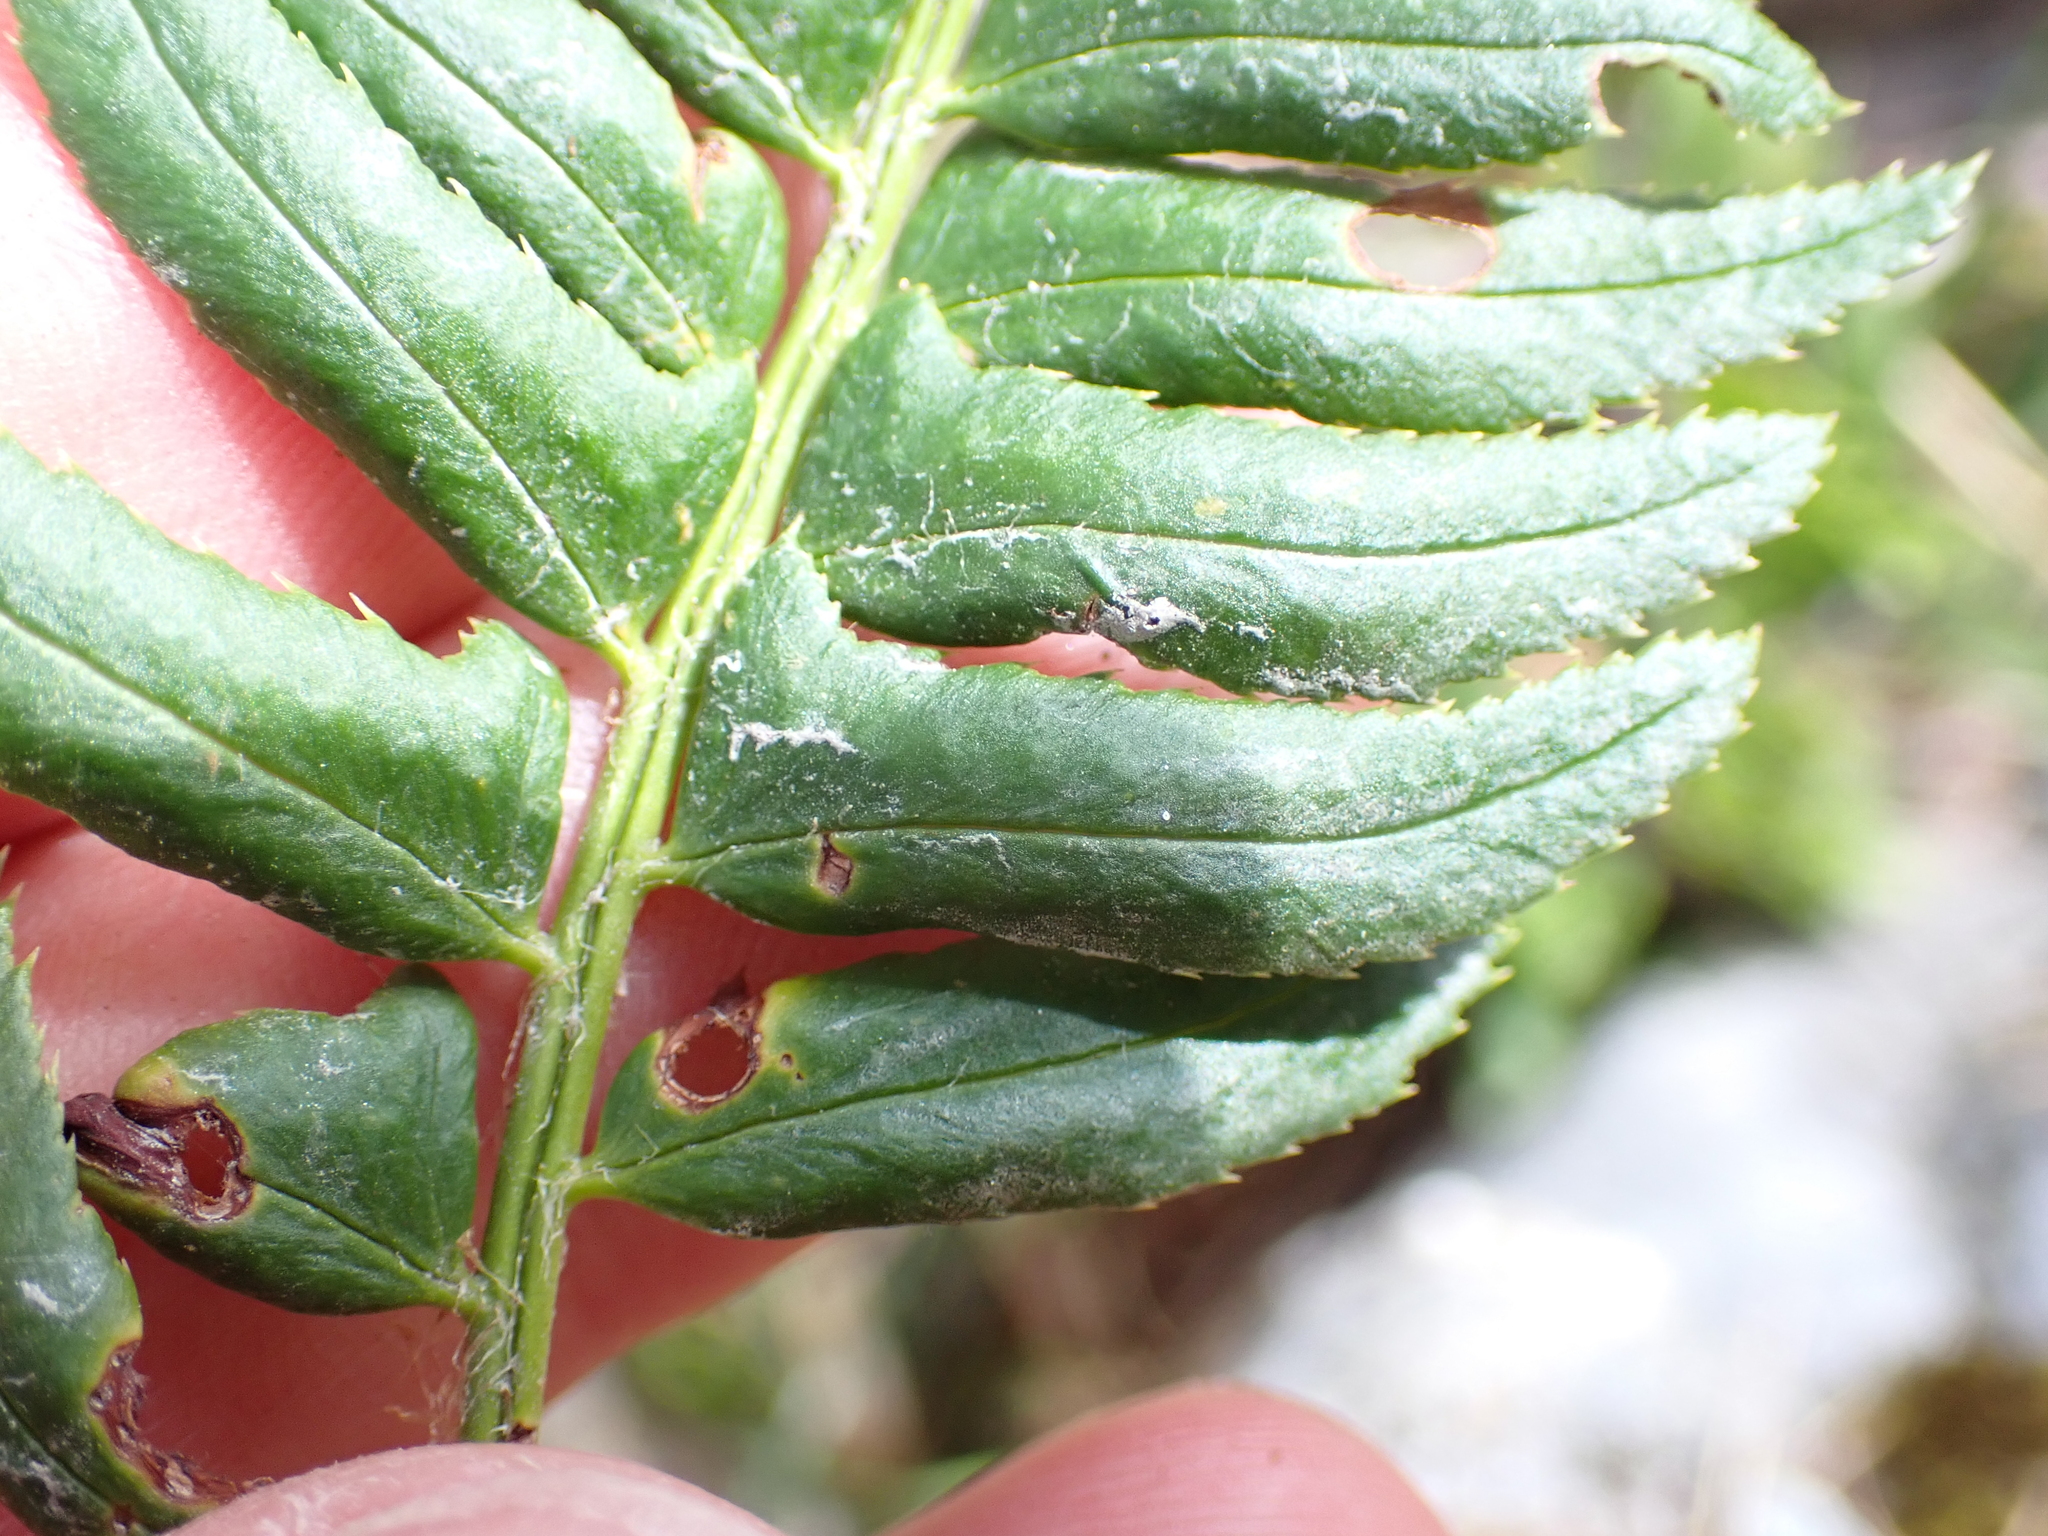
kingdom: Plantae
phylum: Tracheophyta
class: Polypodiopsida
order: Polypodiales
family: Dryopteridaceae
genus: Polystichum
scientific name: Polystichum lonchitis
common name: Holly fern
